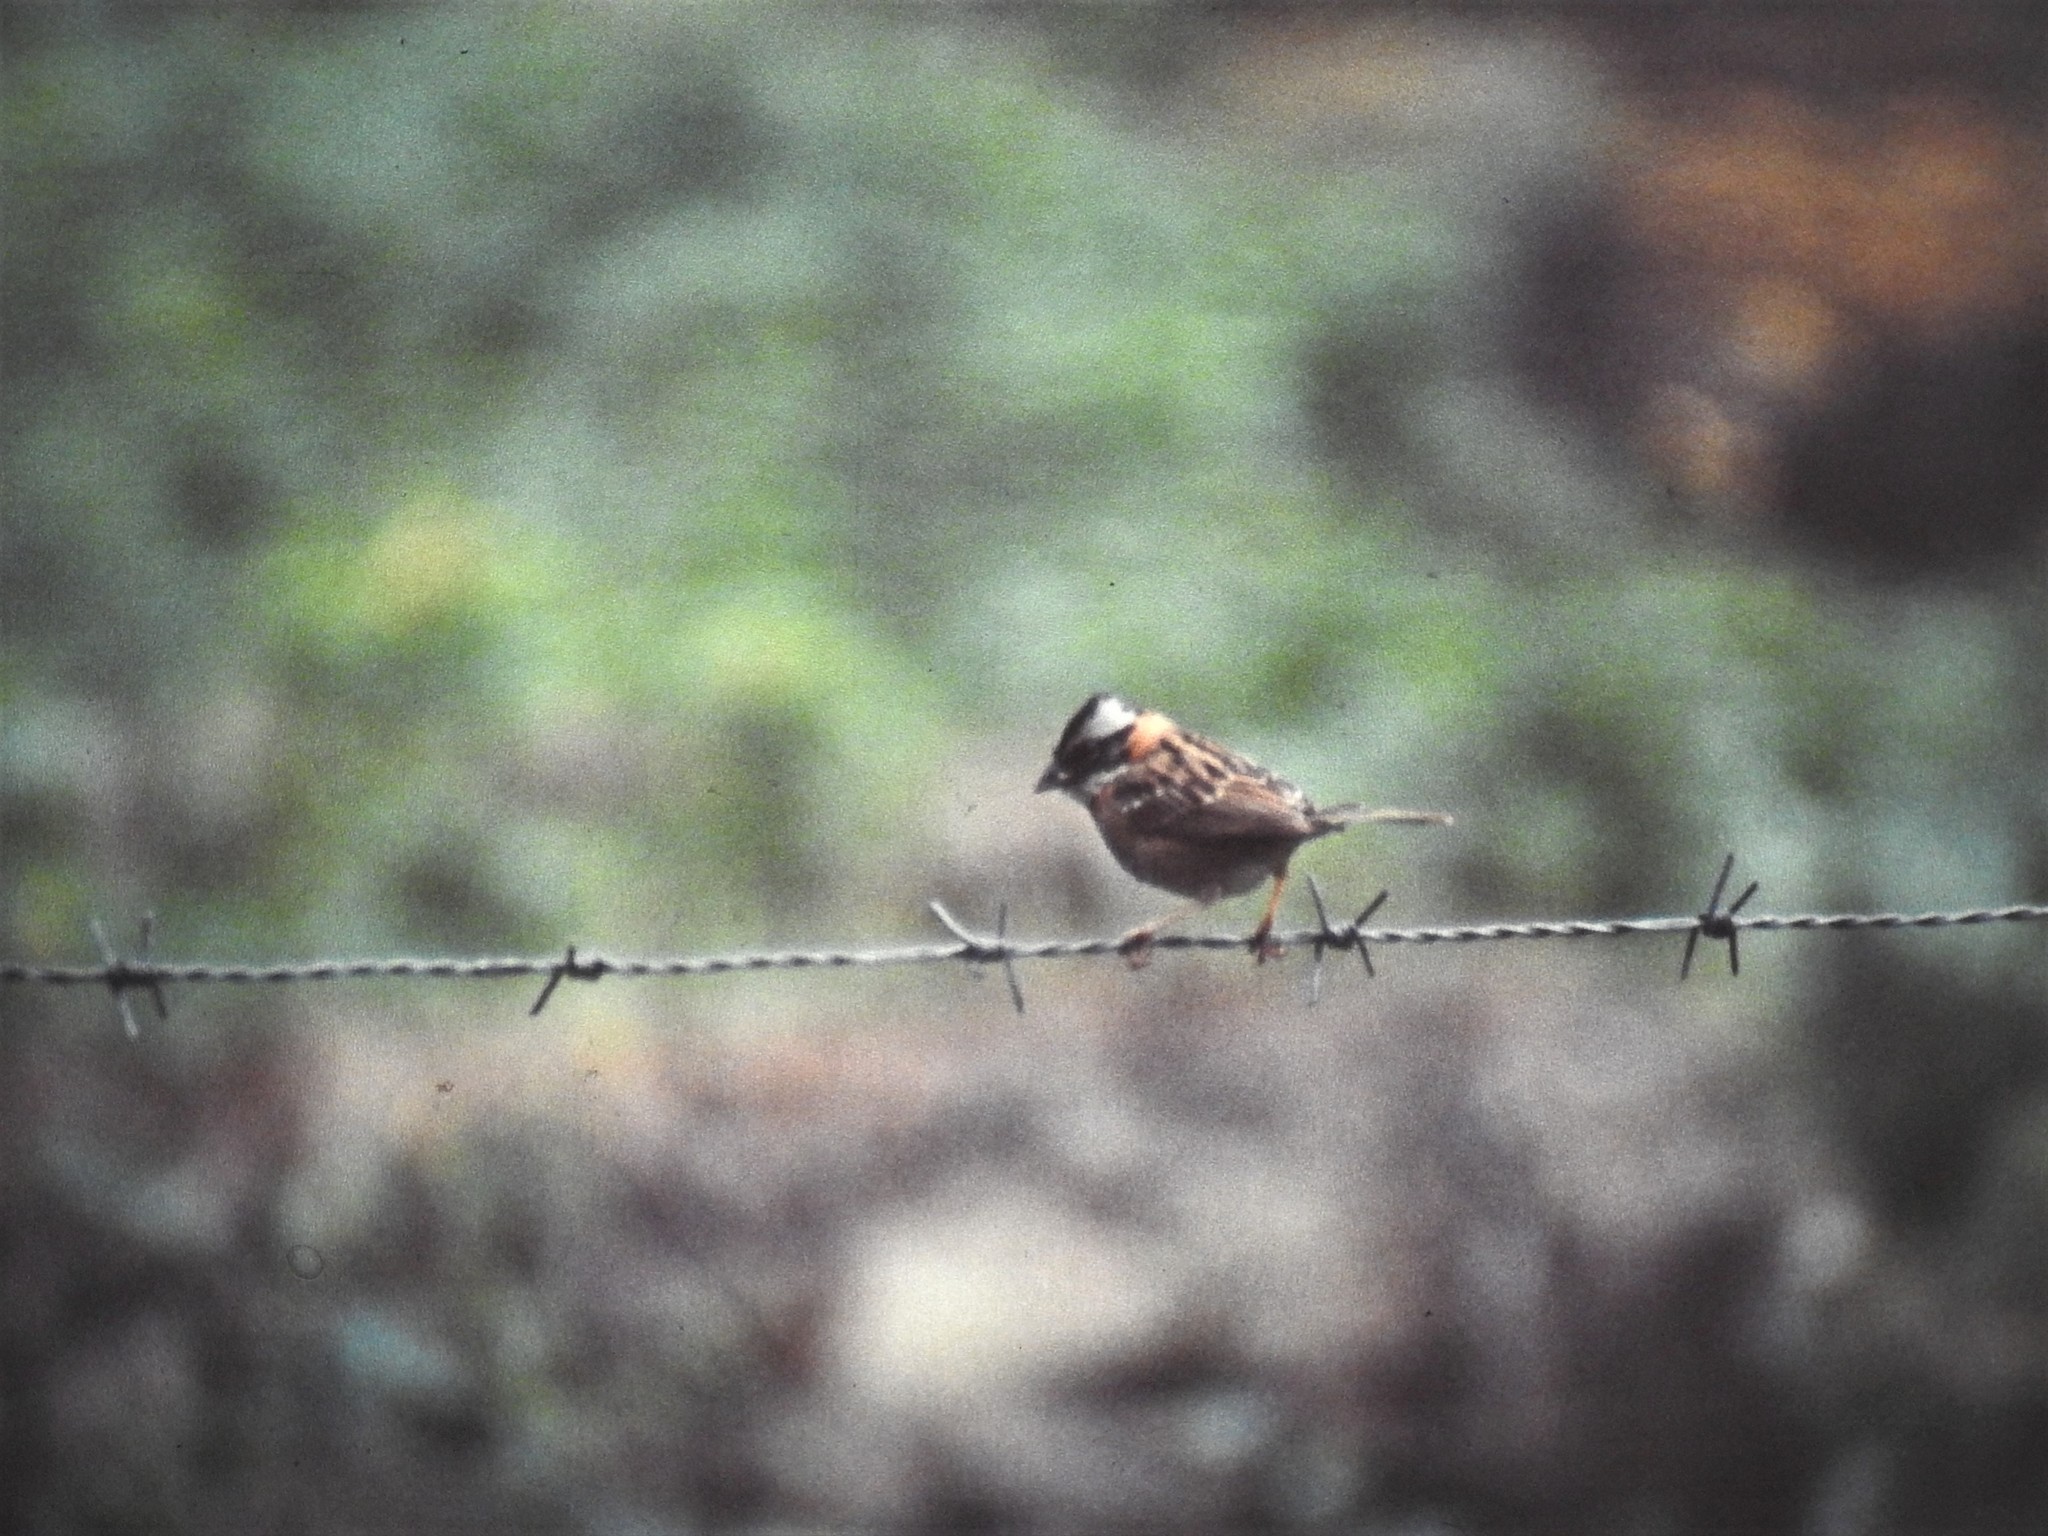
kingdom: Animalia
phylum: Chordata
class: Aves
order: Passeriformes
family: Passerellidae
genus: Zonotrichia
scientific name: Zonotrichia capensis
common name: Rufous-collared sparrow
